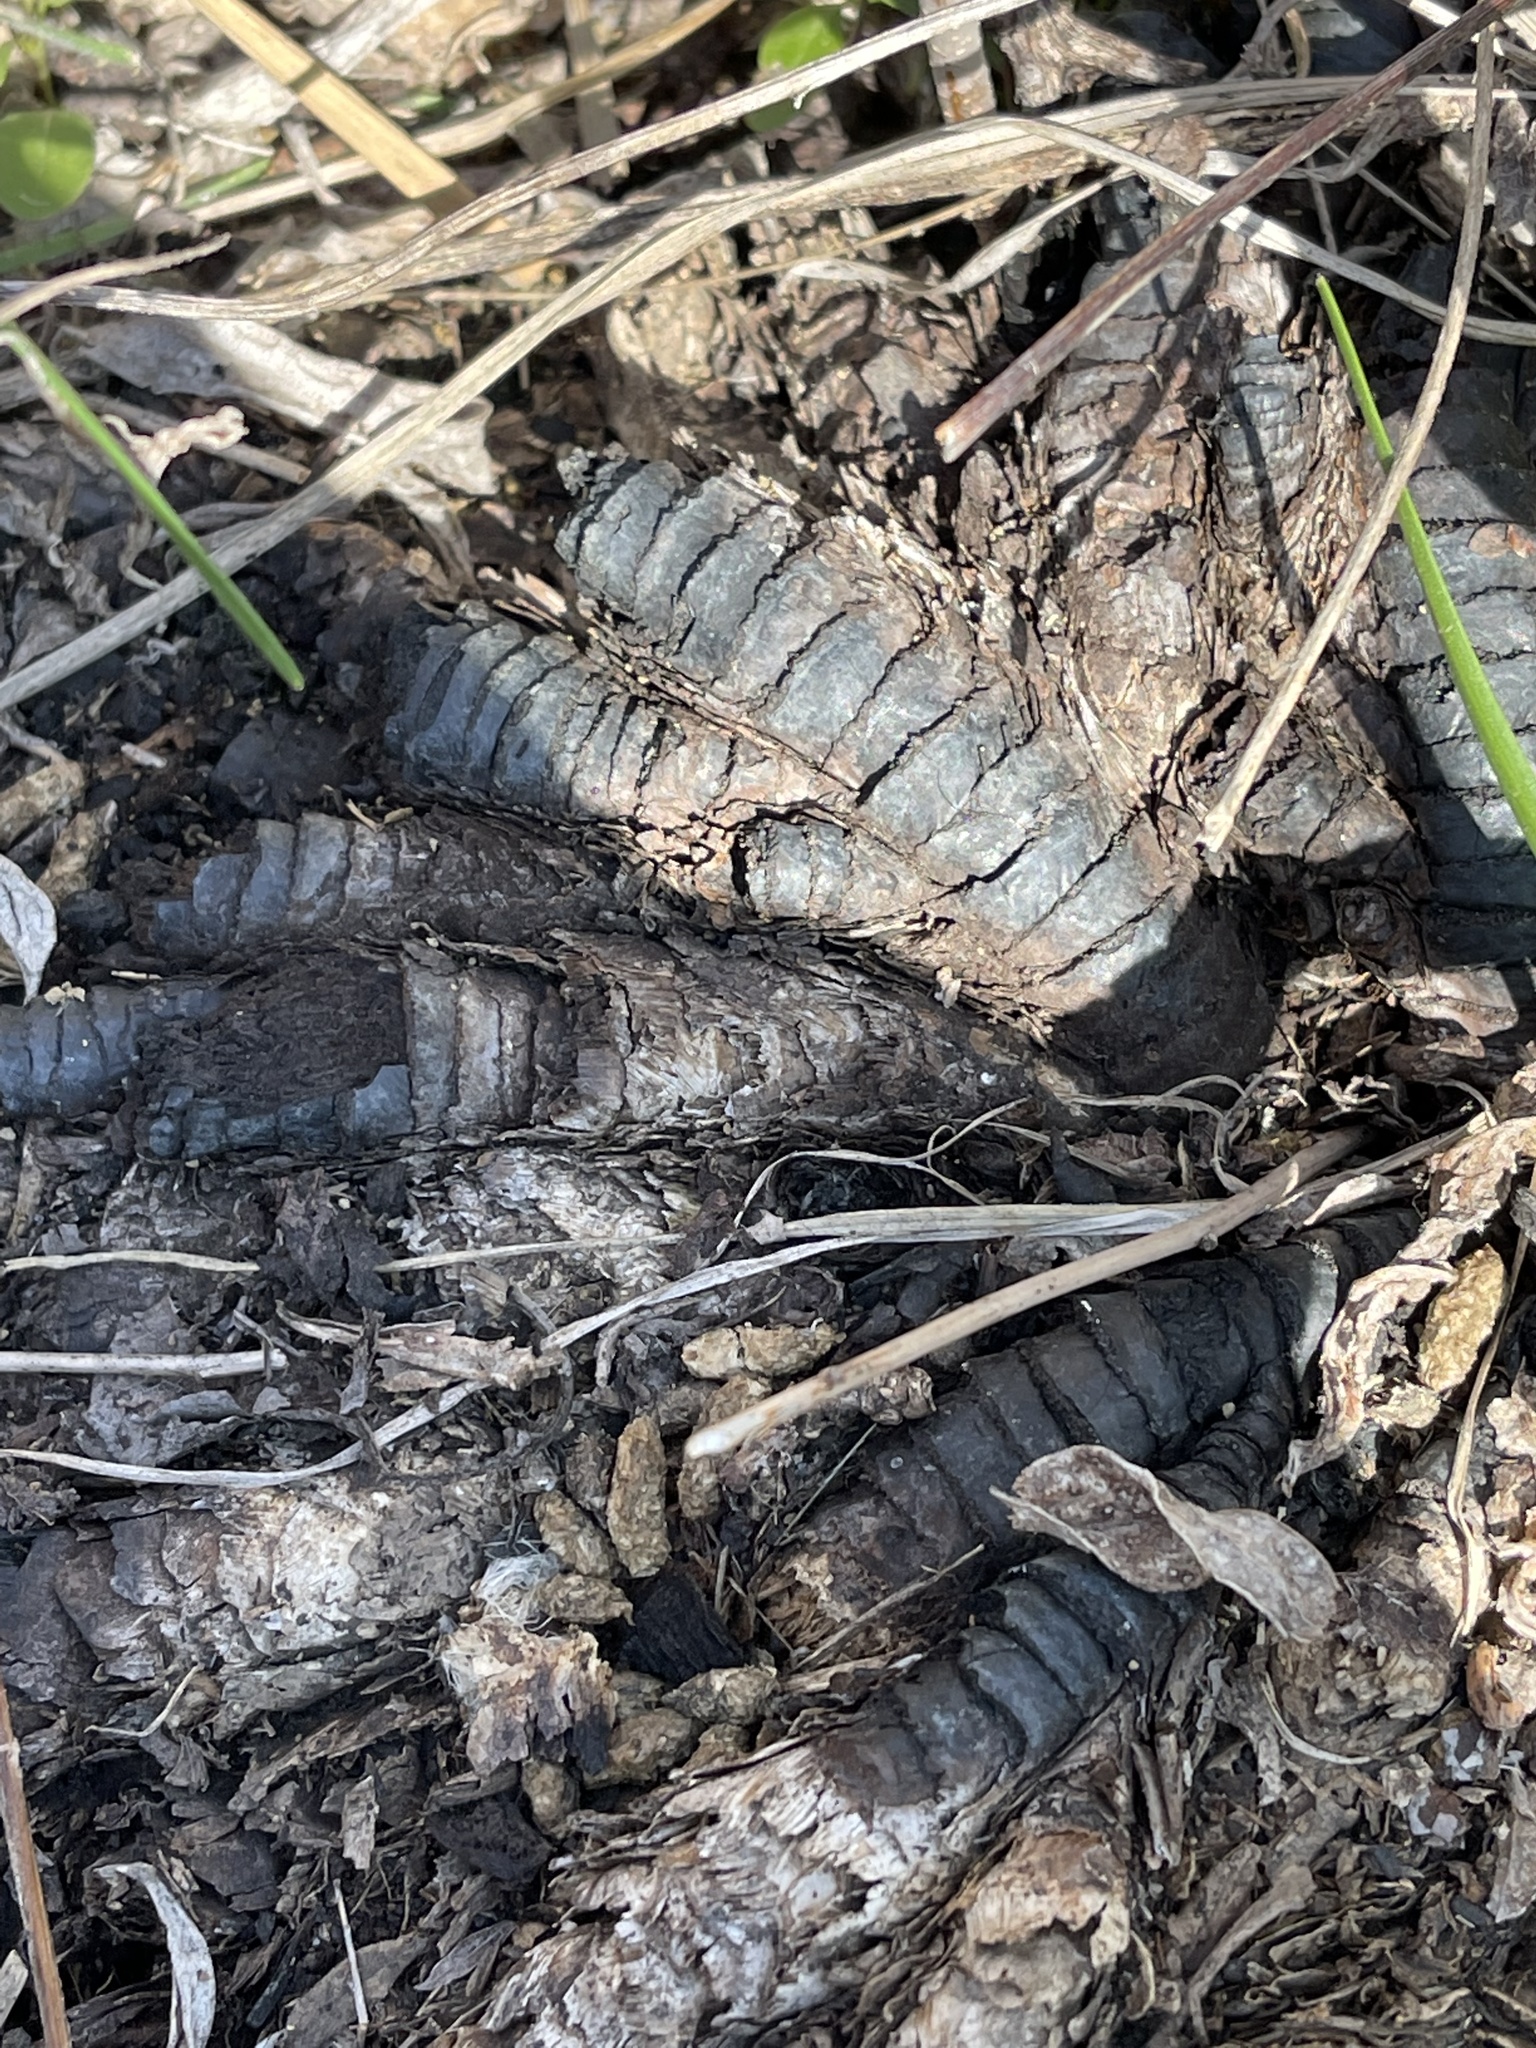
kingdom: Plantae
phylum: Tracheophyta
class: Liliopsida
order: Poales
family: Poaceae
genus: Tripsacum
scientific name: Tripsacum dactyloides
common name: Buffalo-grass
